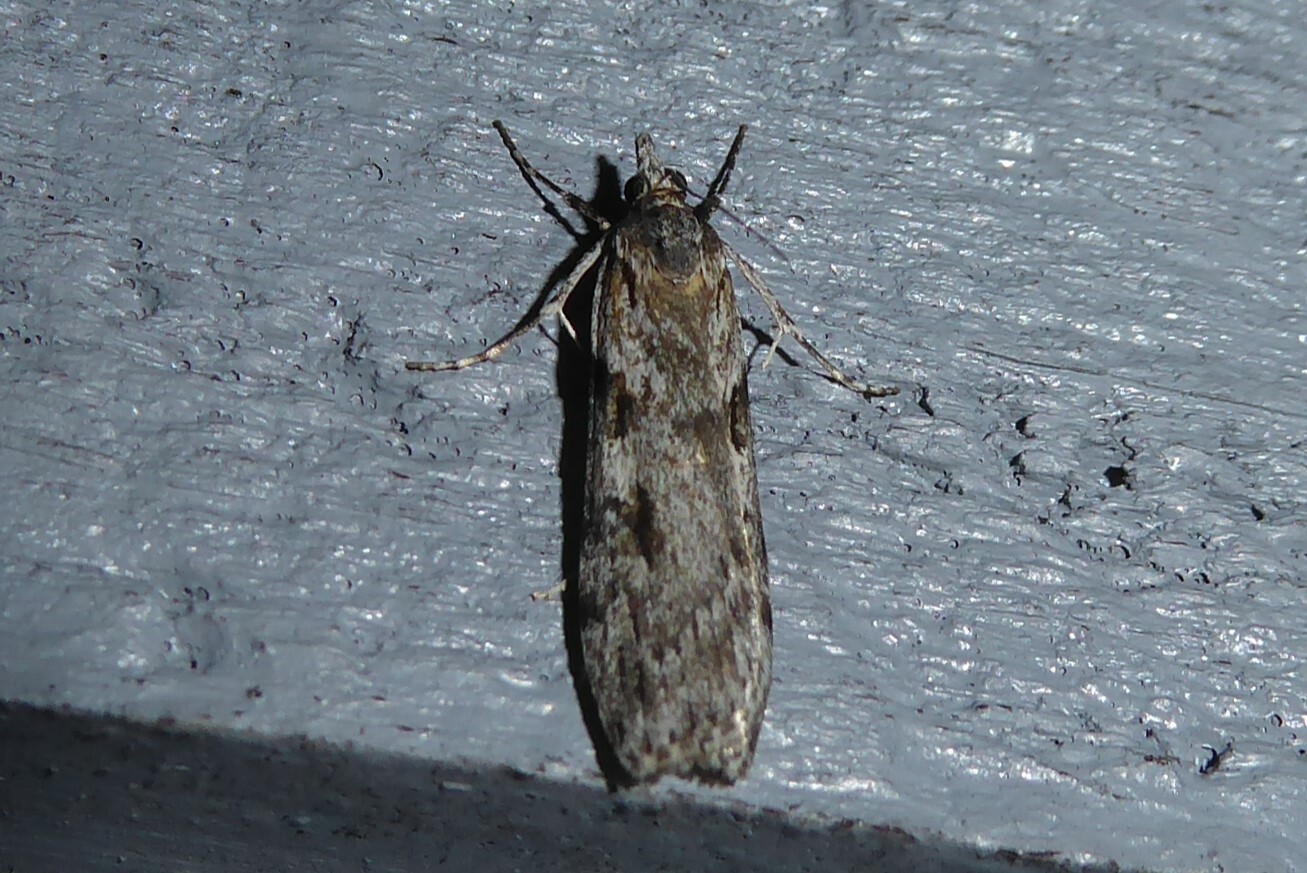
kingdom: Animalia
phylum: Arthropoda
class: Insecta
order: Lepidoptera
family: Crambidae
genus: Scoparia
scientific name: Scoparia halopis
